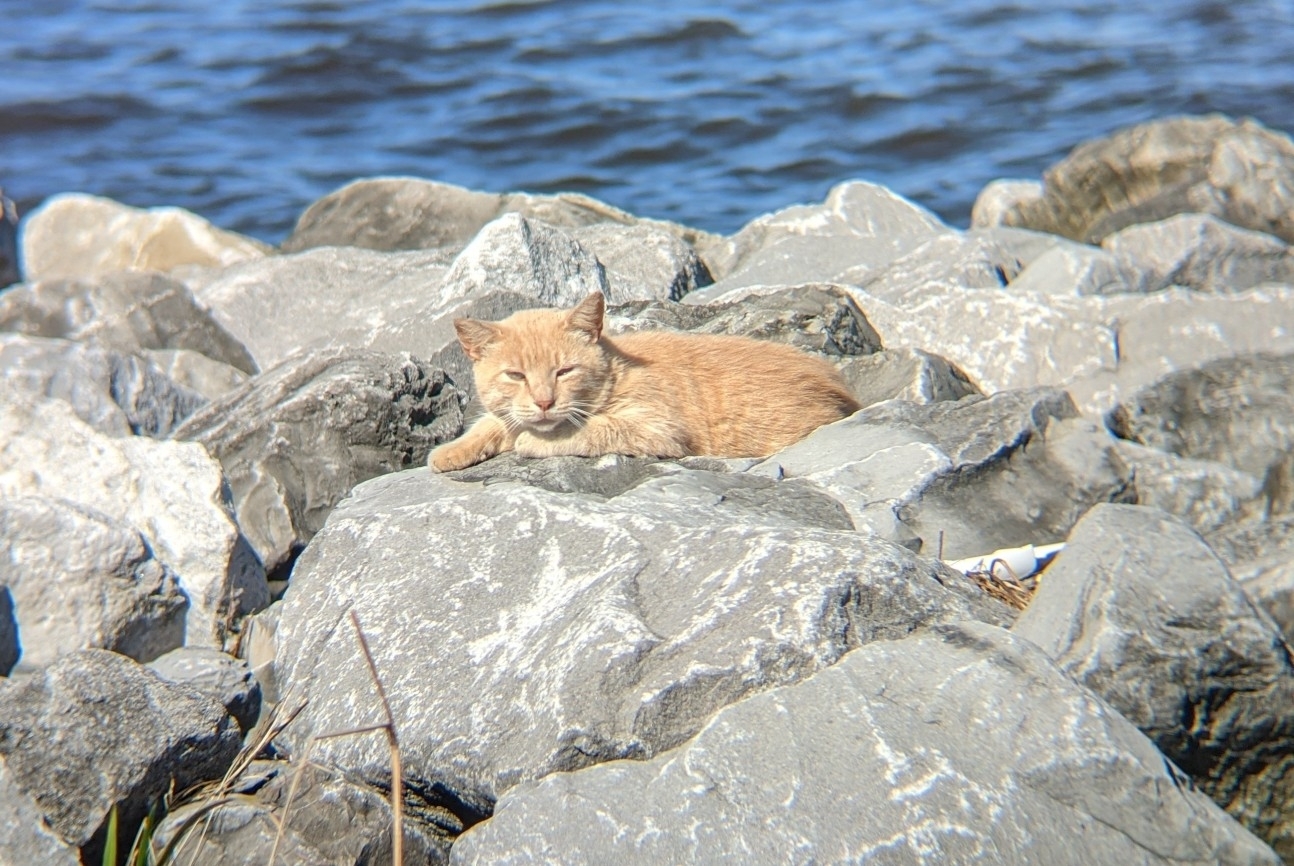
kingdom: Animalia
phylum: Chordata
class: Mammalia
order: Carnivora
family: Felidae
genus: Felis
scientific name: Felis catus
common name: Domestic cat
